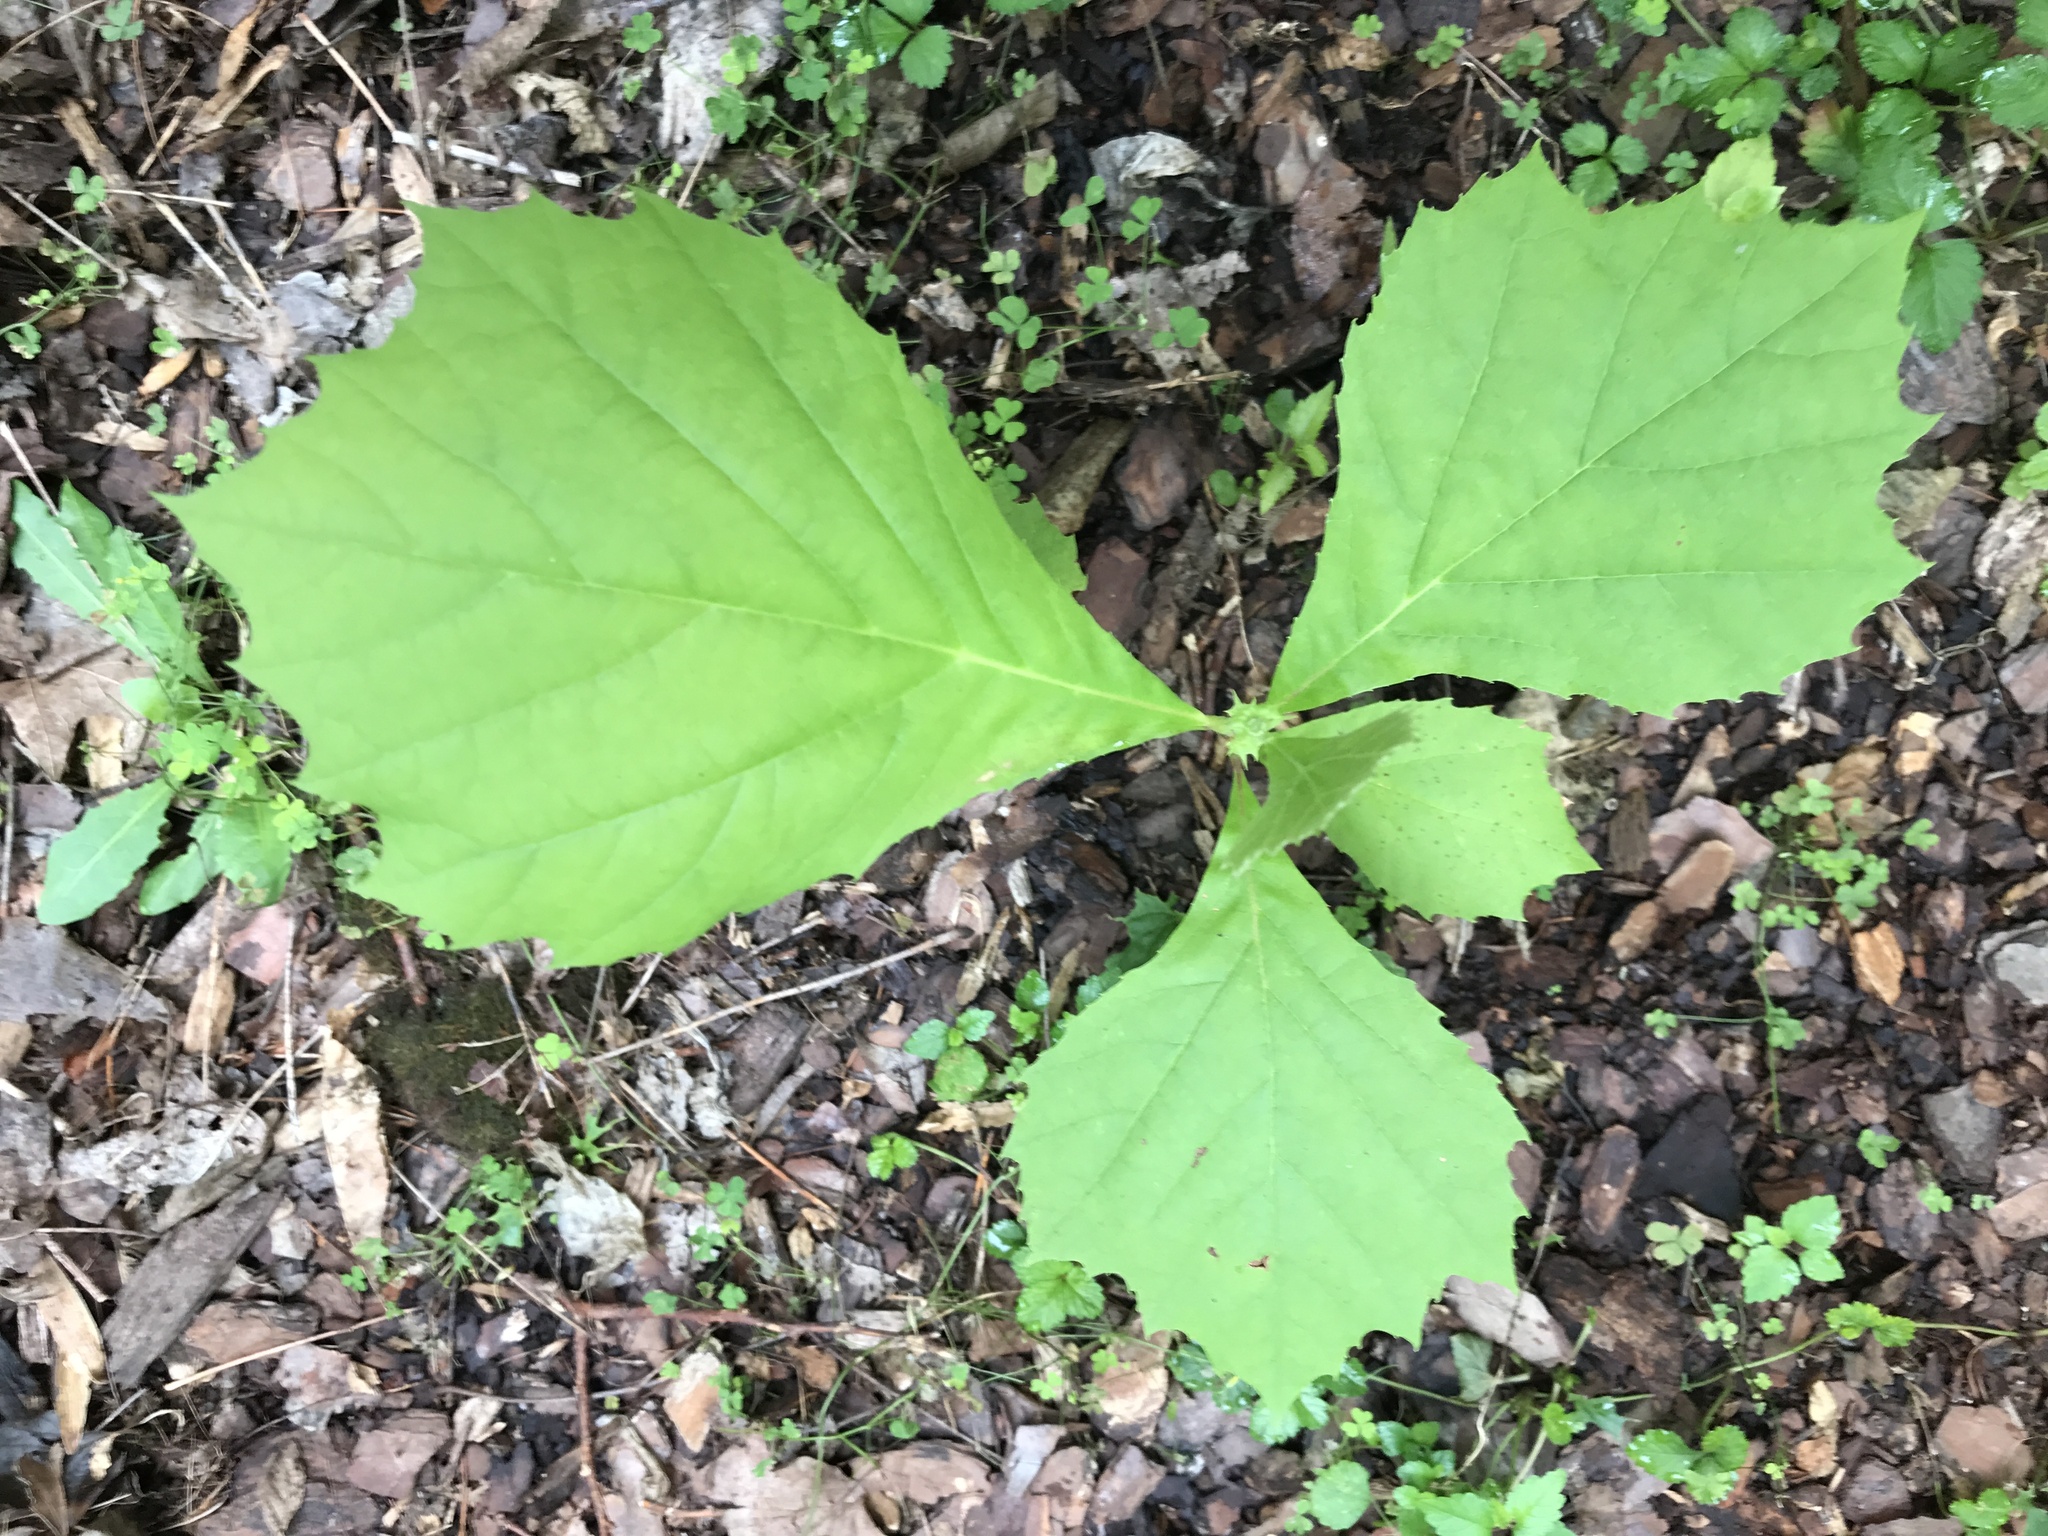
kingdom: Plantae
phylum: Tracheophyta
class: Magnoliopsida
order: Proteales
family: Platanaceae
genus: Platanus
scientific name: Platanus occidentalis
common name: American sycamore
